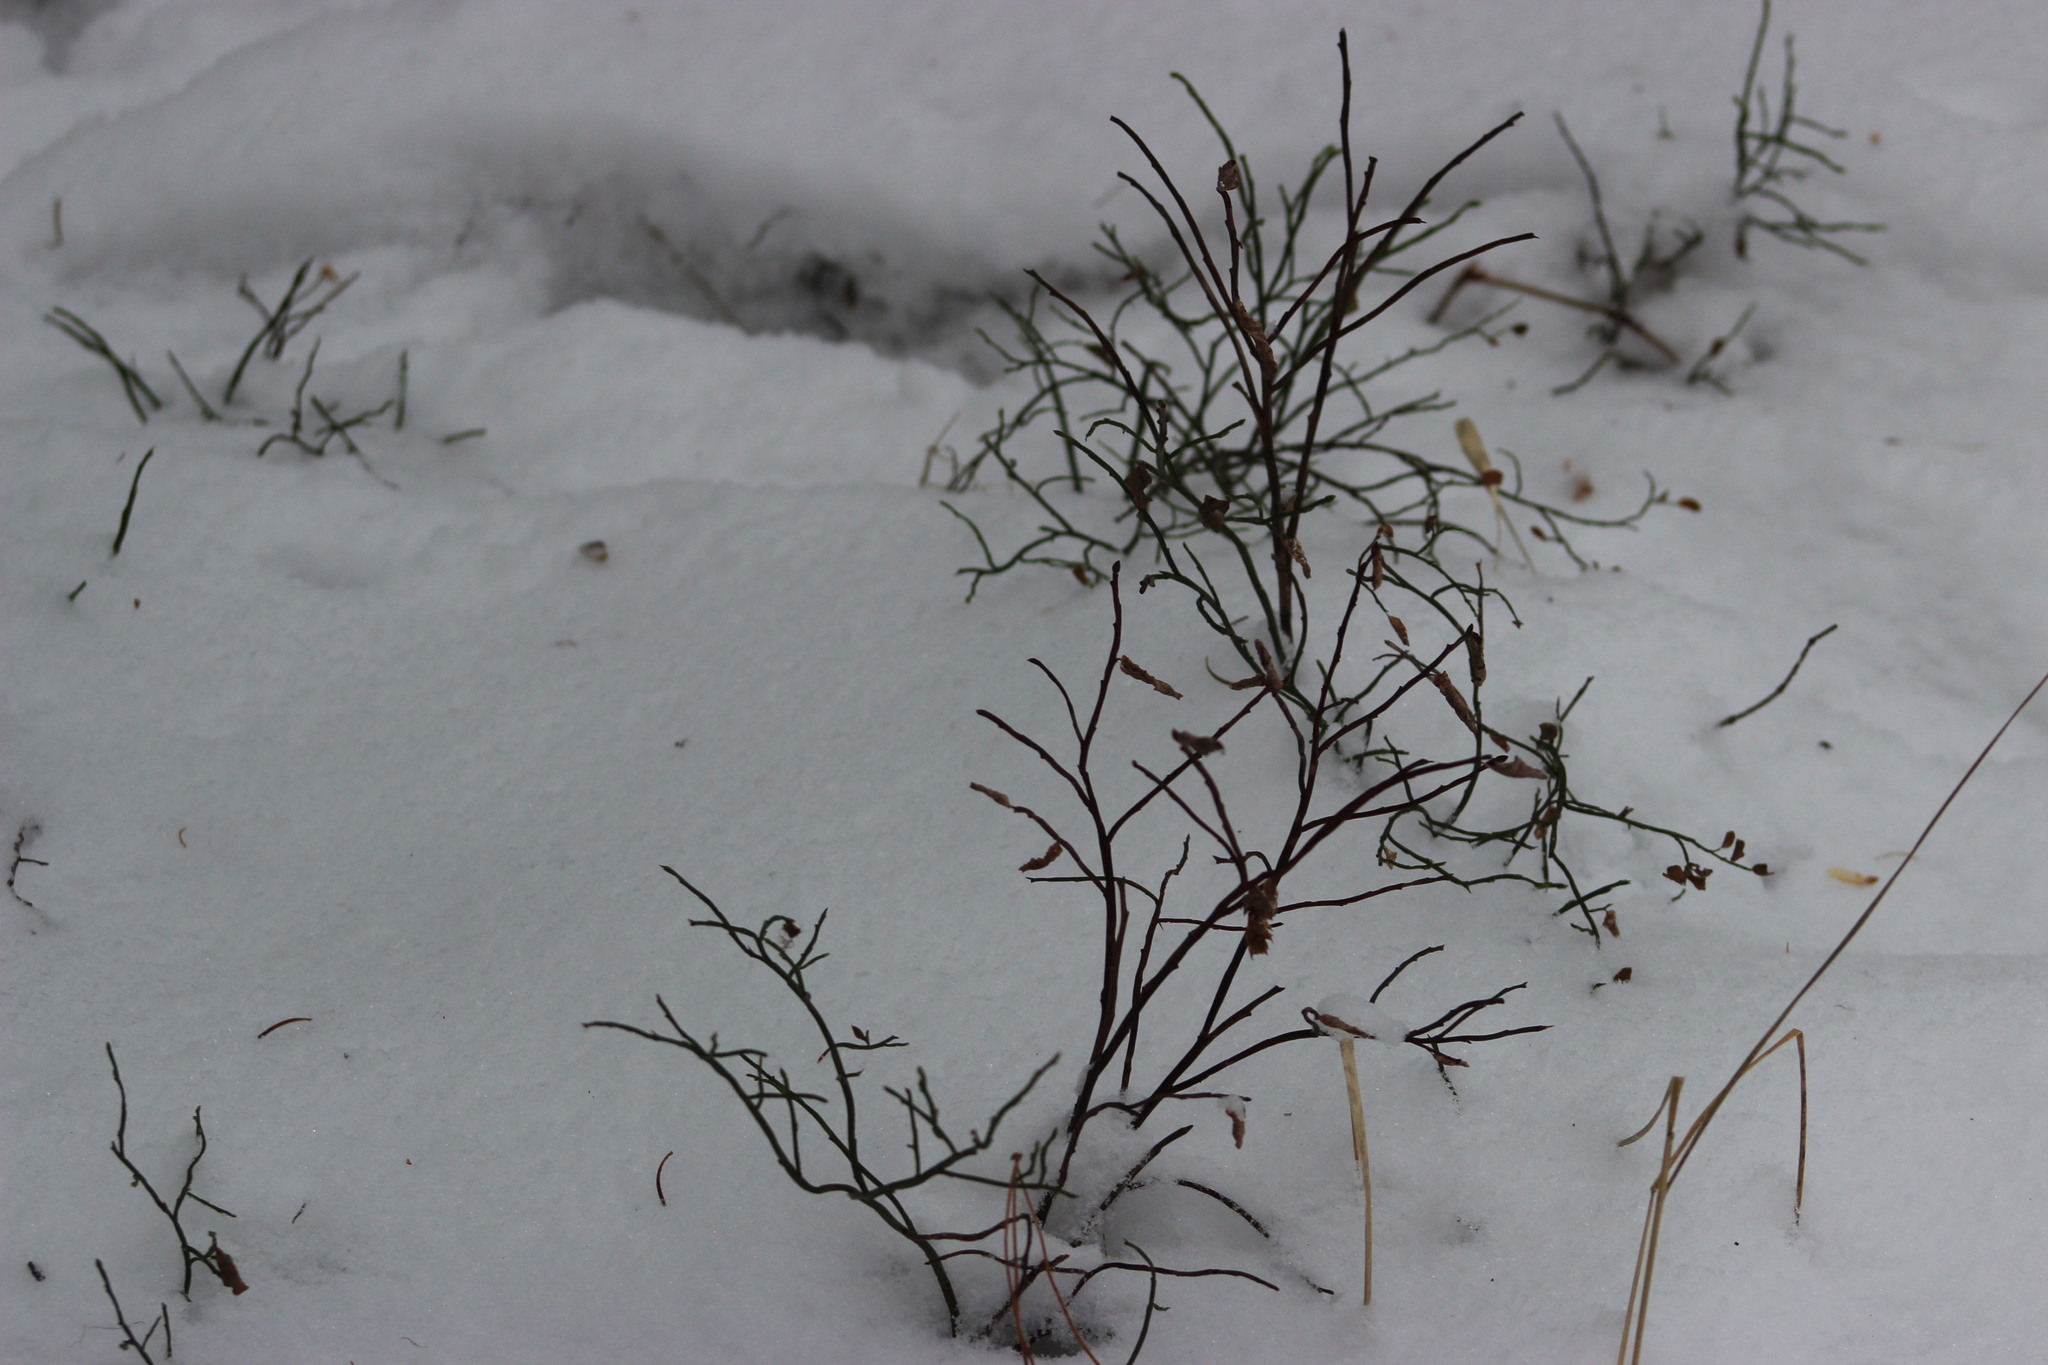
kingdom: Plantae
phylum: Tracheophyta
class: Magnoliopsida
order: Ericales
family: Ericaceae
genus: Vaccinium
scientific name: Vaccinium myrtillus
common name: Bilberry
